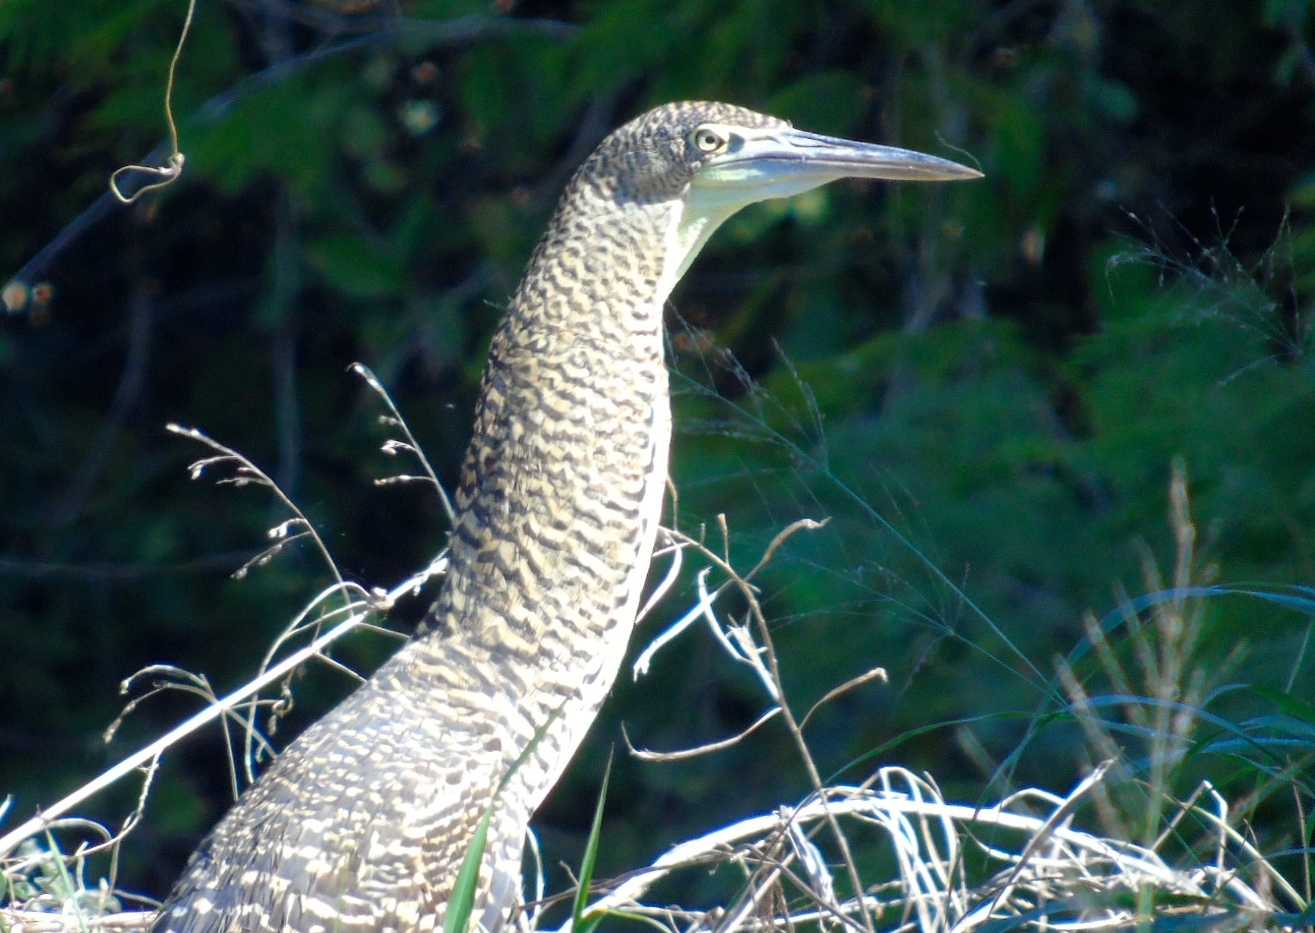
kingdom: Animalia
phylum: Chordata
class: Aves
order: Pelecaniformes
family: Ardeidae
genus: Tigrisoma
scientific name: Tigrisoma mexicanum
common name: Bare-throated tiger-heron
